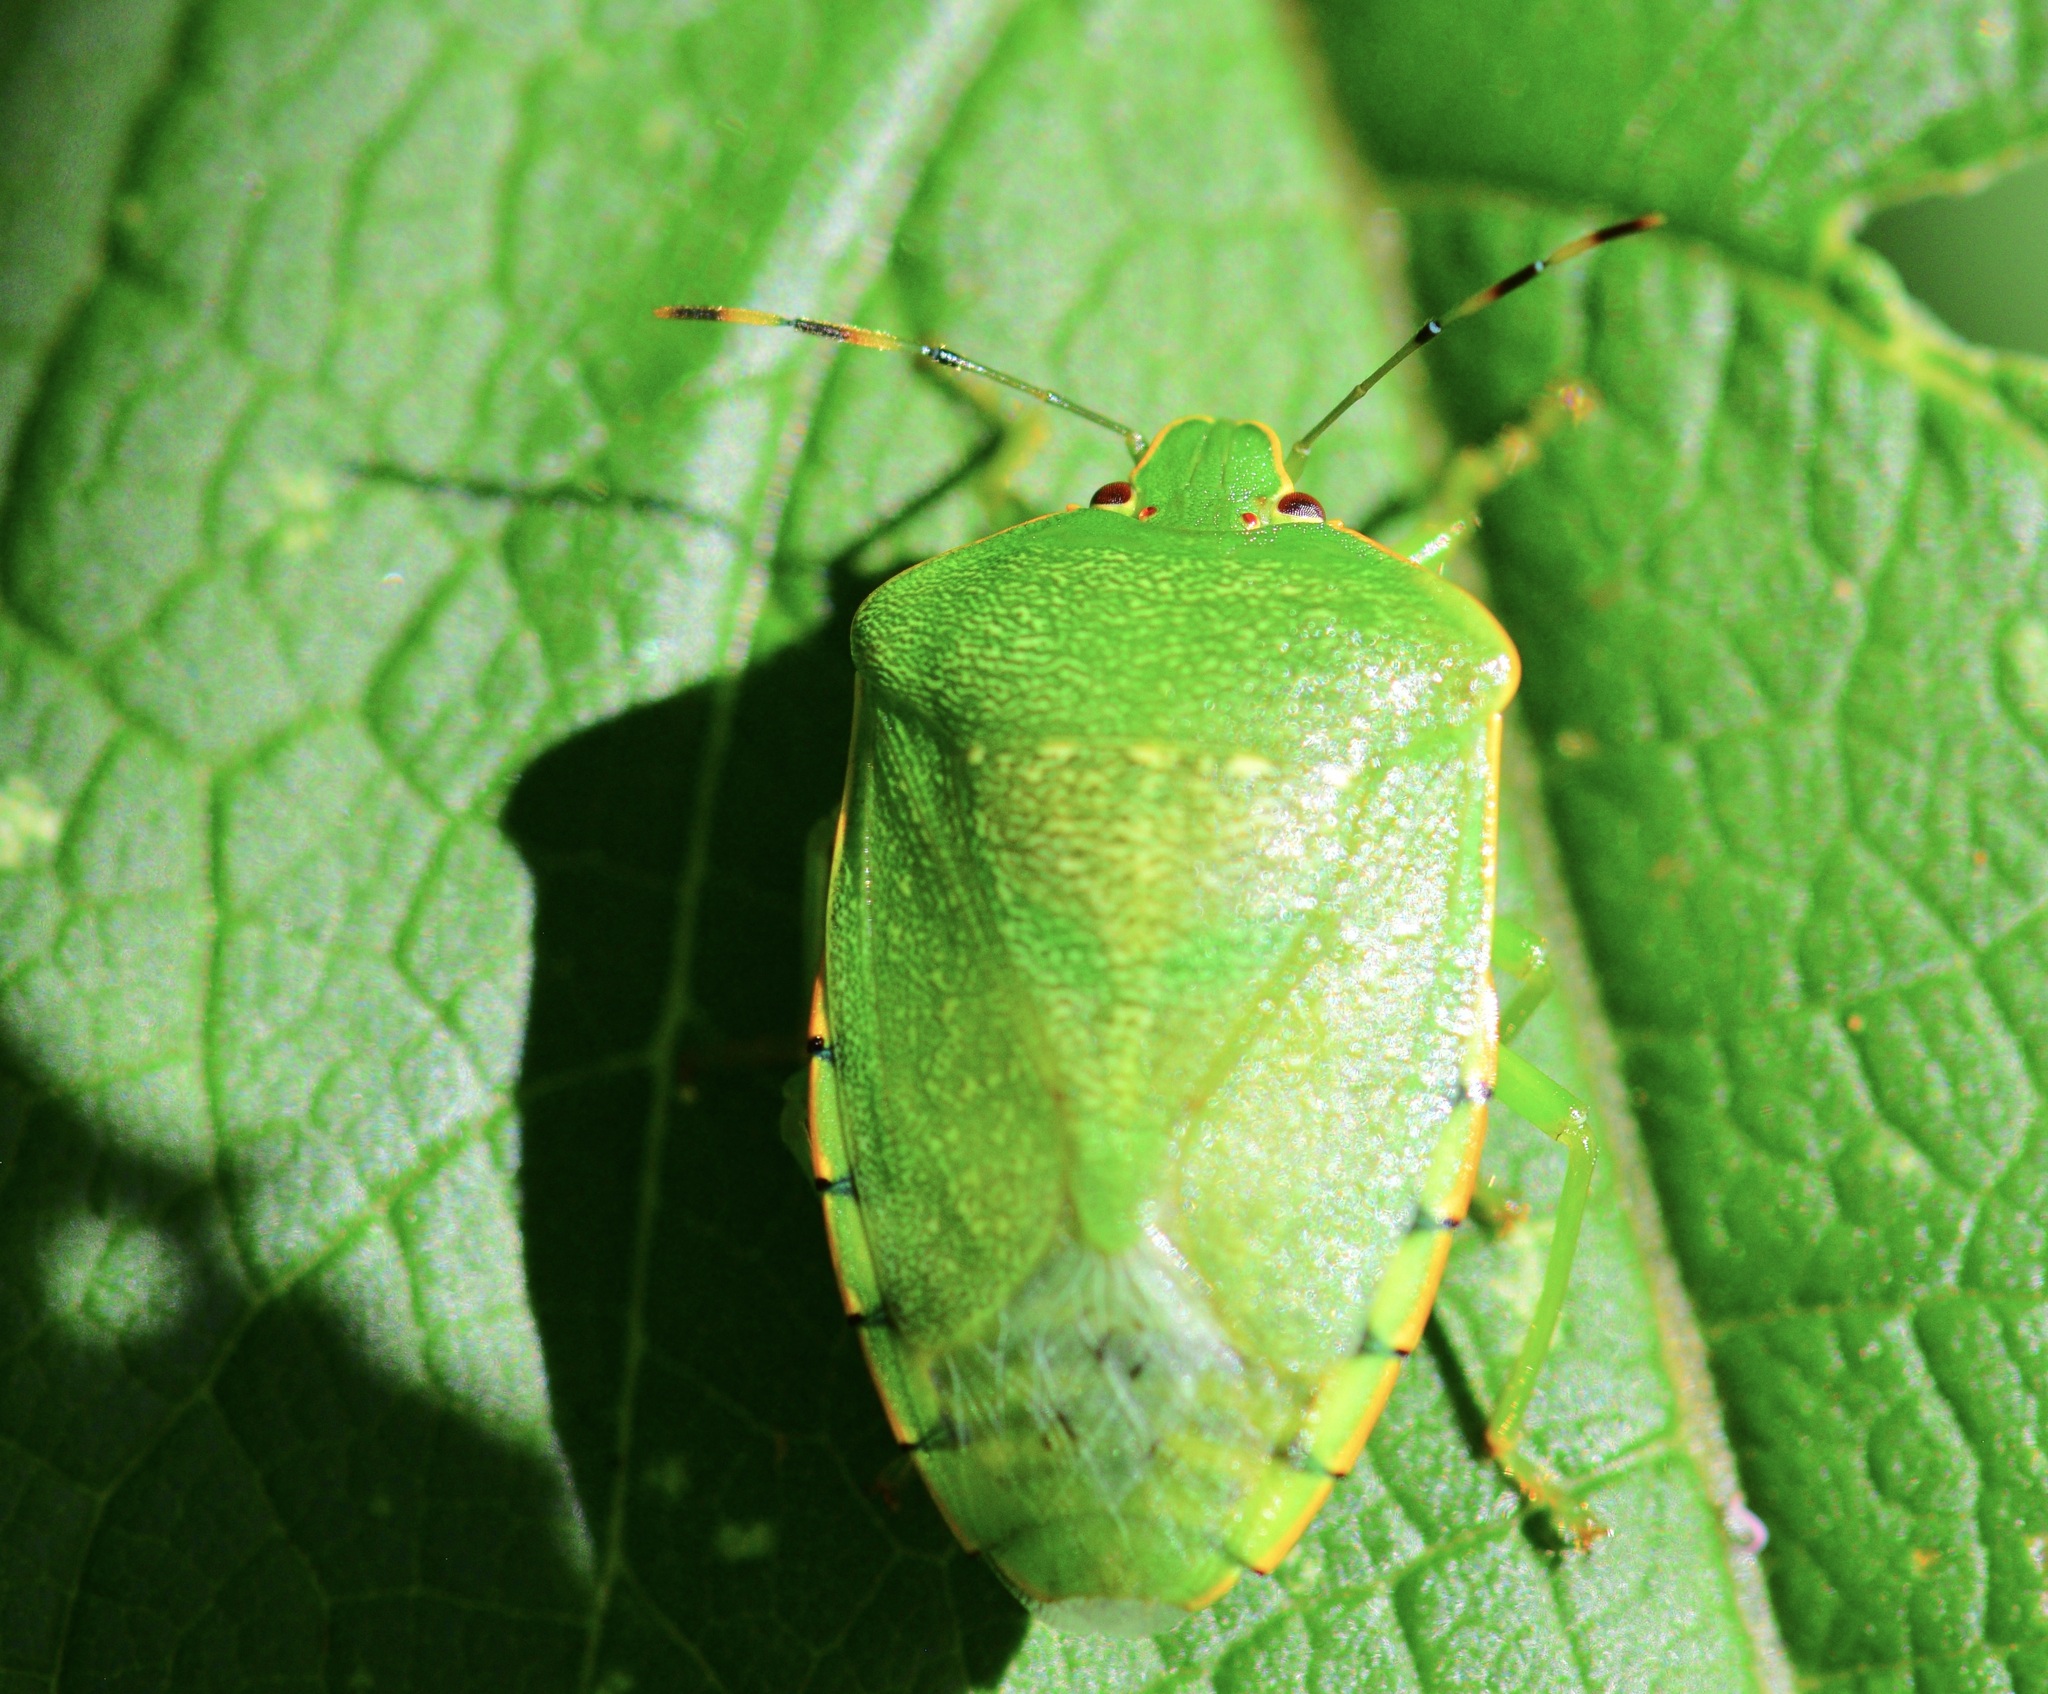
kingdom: Animalia
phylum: Arthropoda
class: Insecta
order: Hemiptera
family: Pentatomidae
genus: Chinavia
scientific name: Chinavia hilaris
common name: Green stink bug
